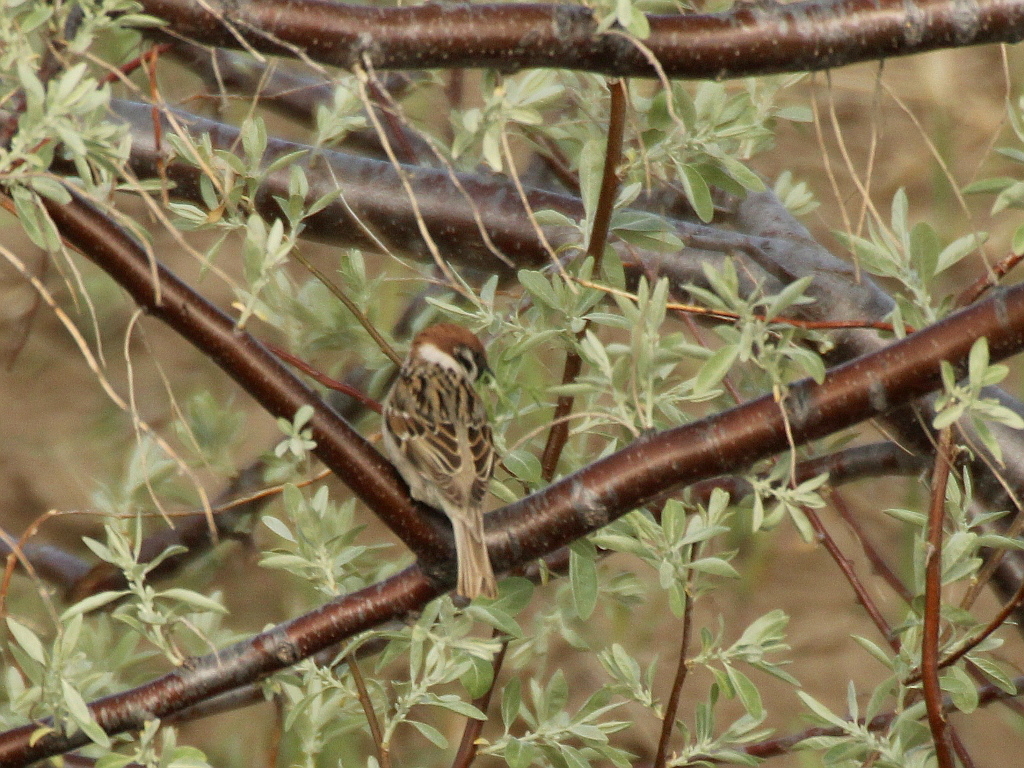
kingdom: Animalia
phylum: Chordata
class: Aves
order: Passeriformes
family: Passeridae
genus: Passer
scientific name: Passer montanus
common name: Eurasian tree sparrow
